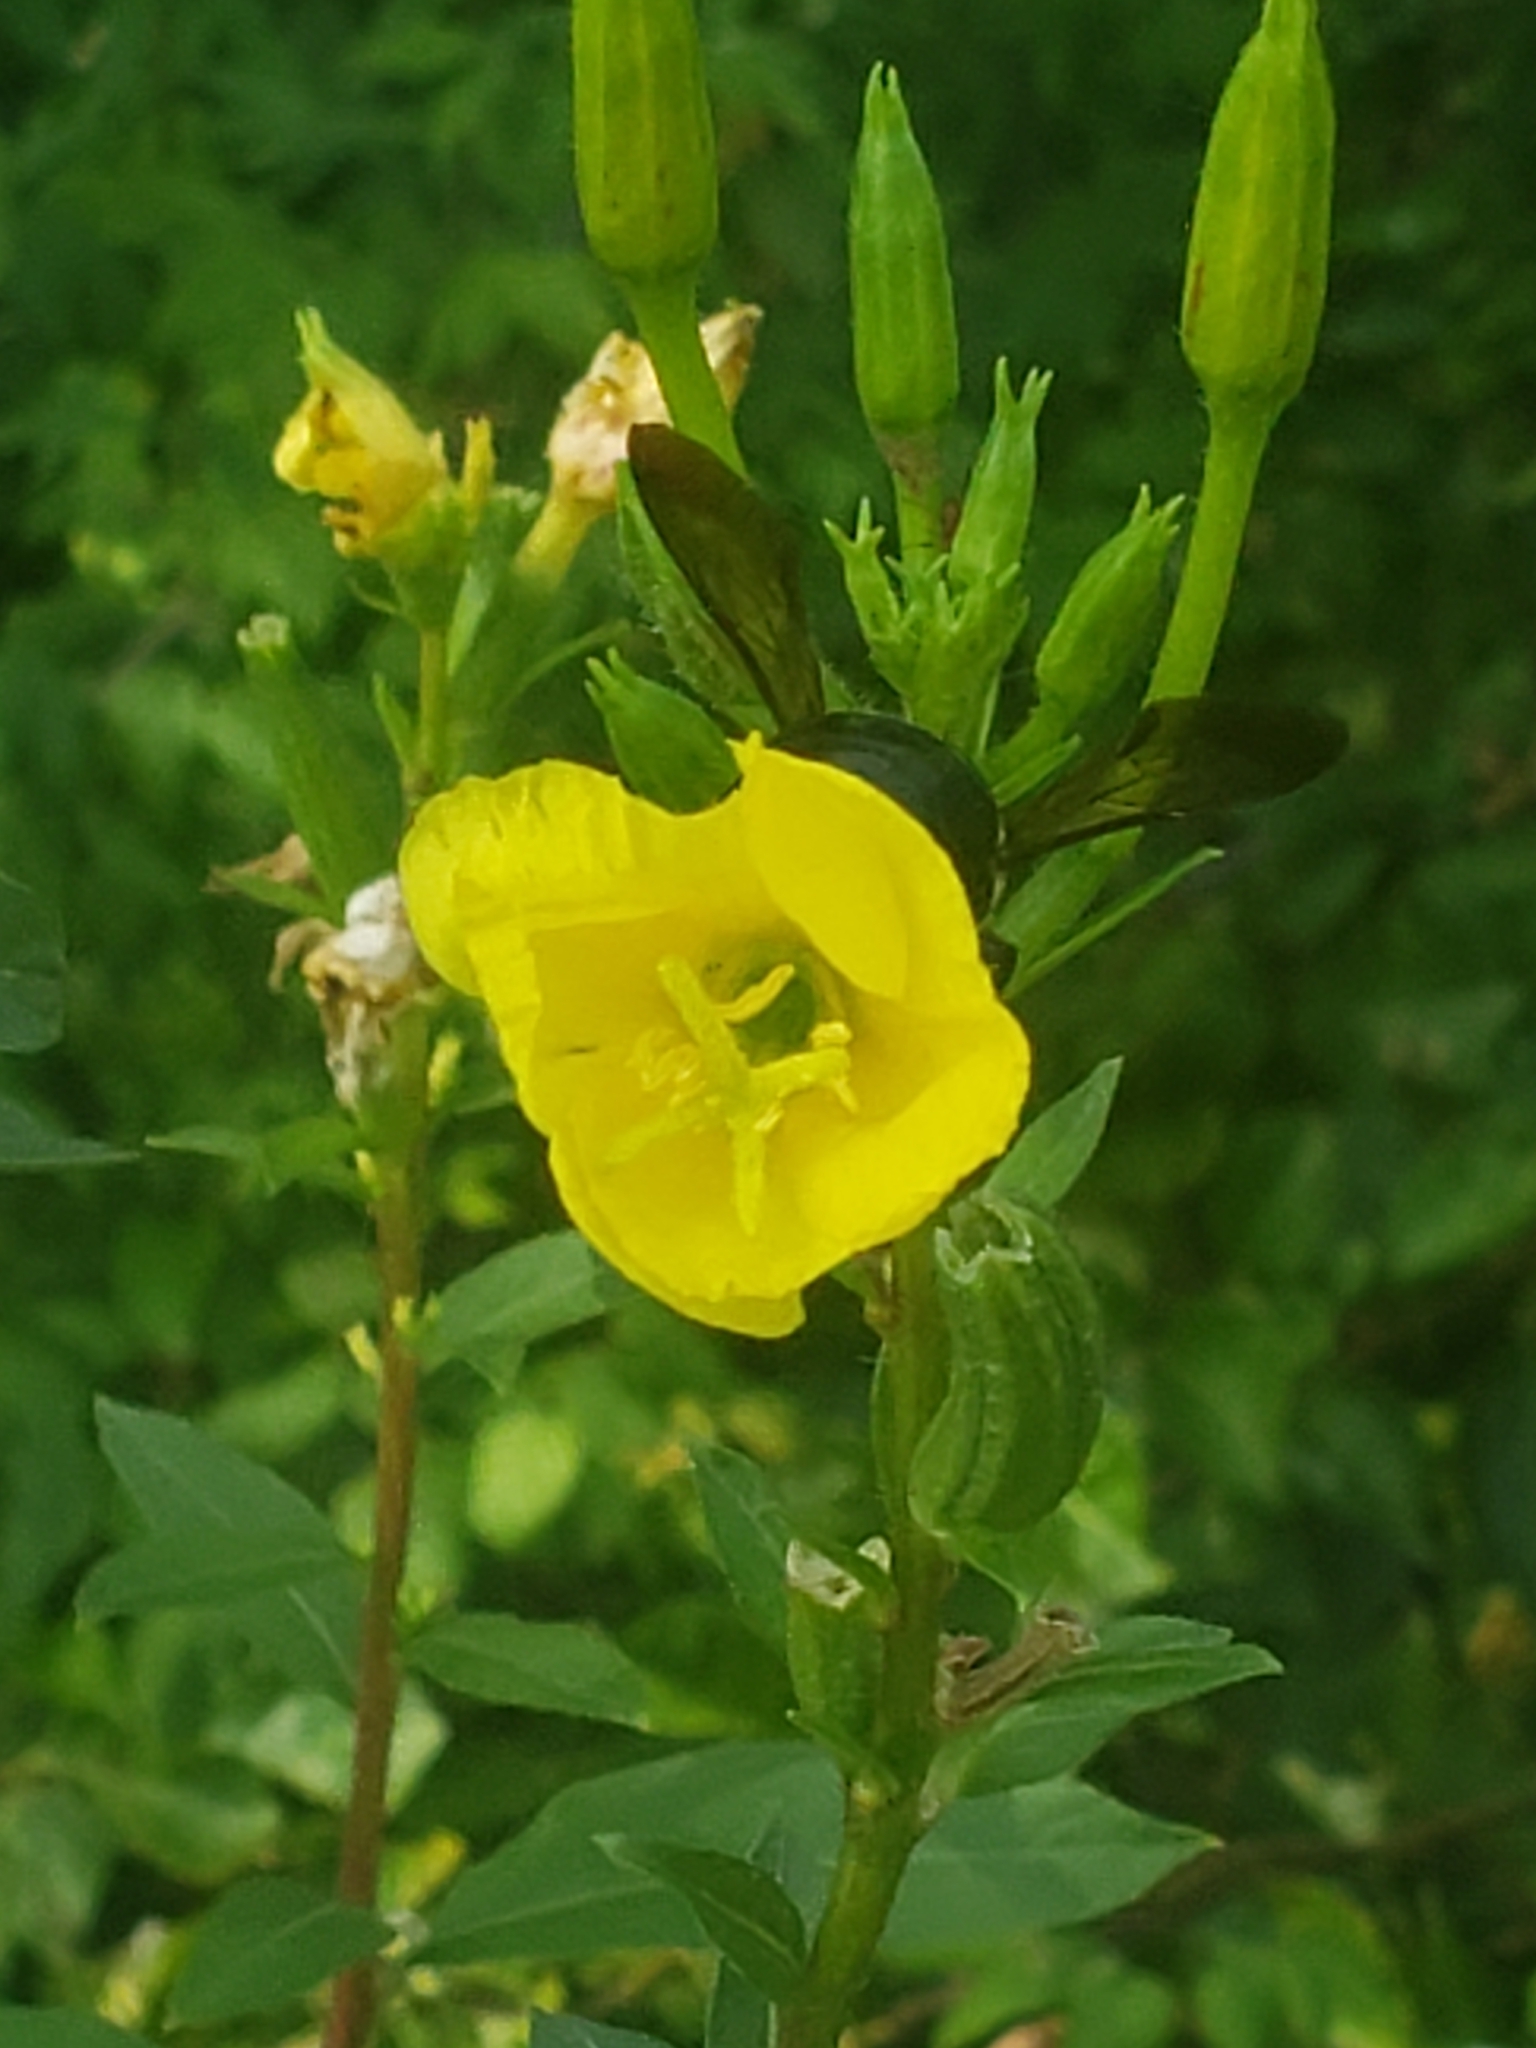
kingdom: Animalia
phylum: Arthropoda
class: Insecta
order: Hymenoptera
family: Apidae
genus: Xylocopa
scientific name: Xylocopa virginica
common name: Carpenter bee
